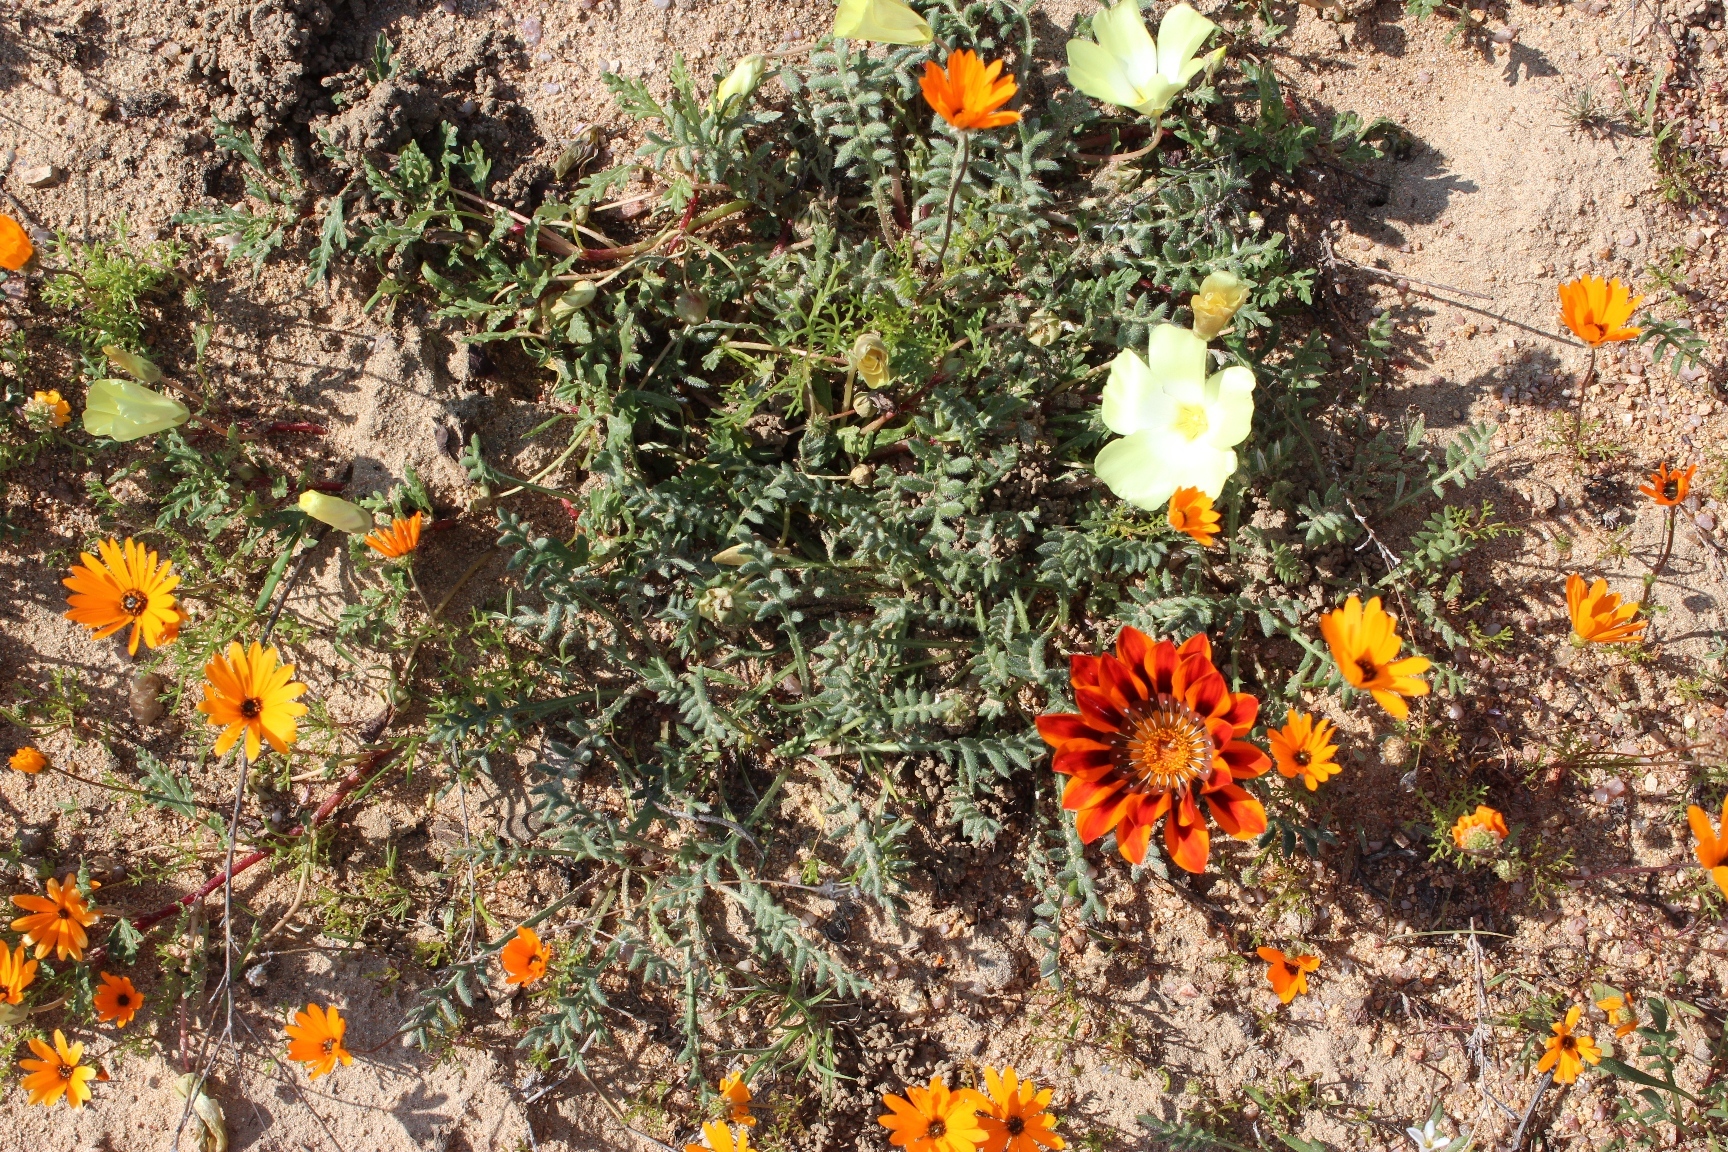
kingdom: Plantae
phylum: Tracheophyta
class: Magnoliopsida
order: Asterales
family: Asteraceae
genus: Gazania
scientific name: Gazania leiopoda
